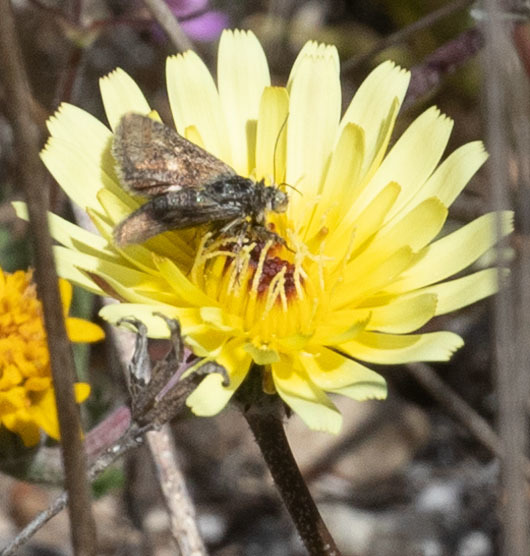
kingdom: Animalia
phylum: Arthropoda
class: Insecta
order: Lepidoptera
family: Noctuidae
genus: Heliolonche
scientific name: Heliolonche joaquinensis
